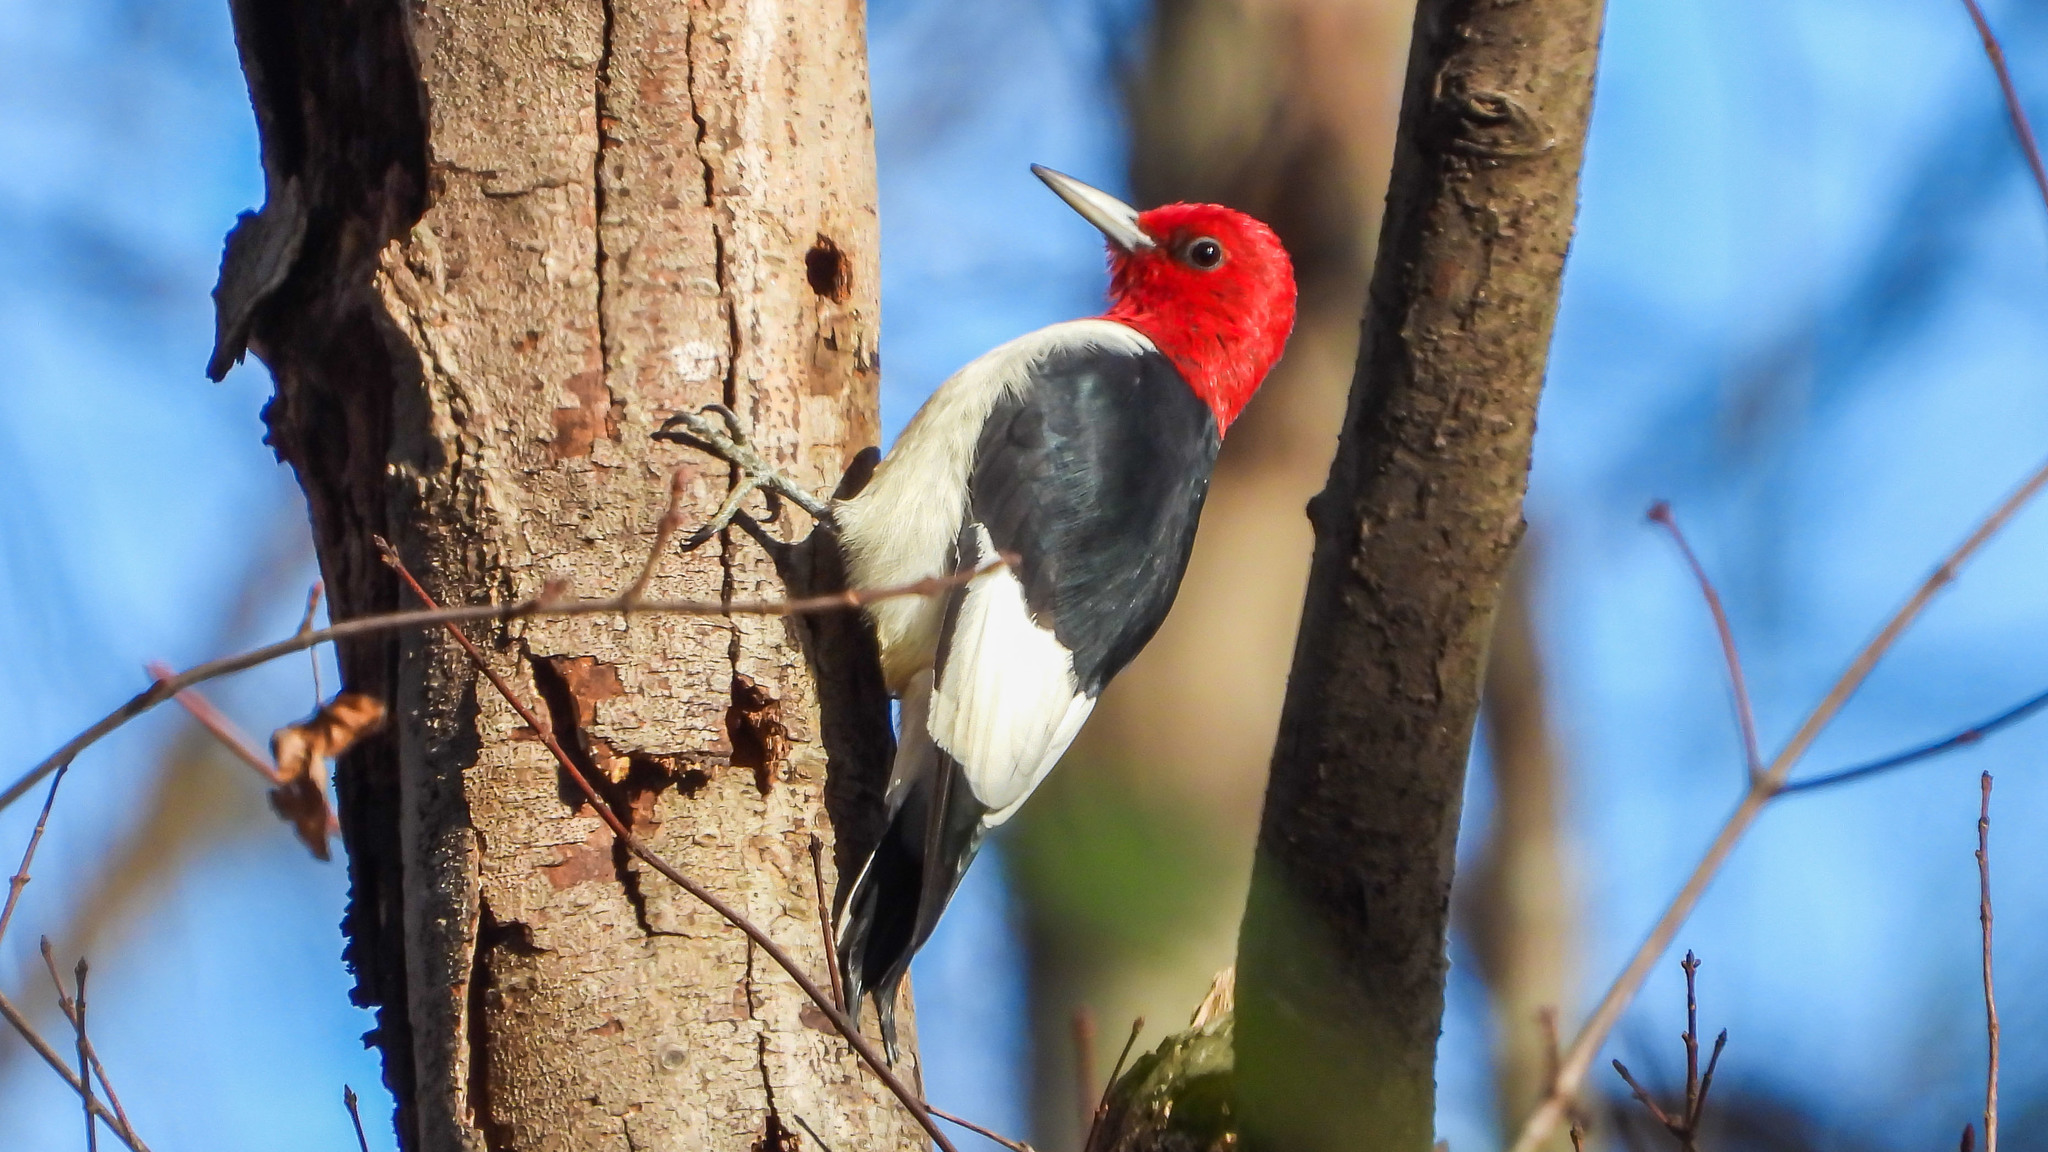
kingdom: Animalia
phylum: Chordata
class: Aves
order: Piciformes
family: Picidae
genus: Melanerpes
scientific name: Melanerpes erythrocephalus
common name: Red-headed woodpecker
